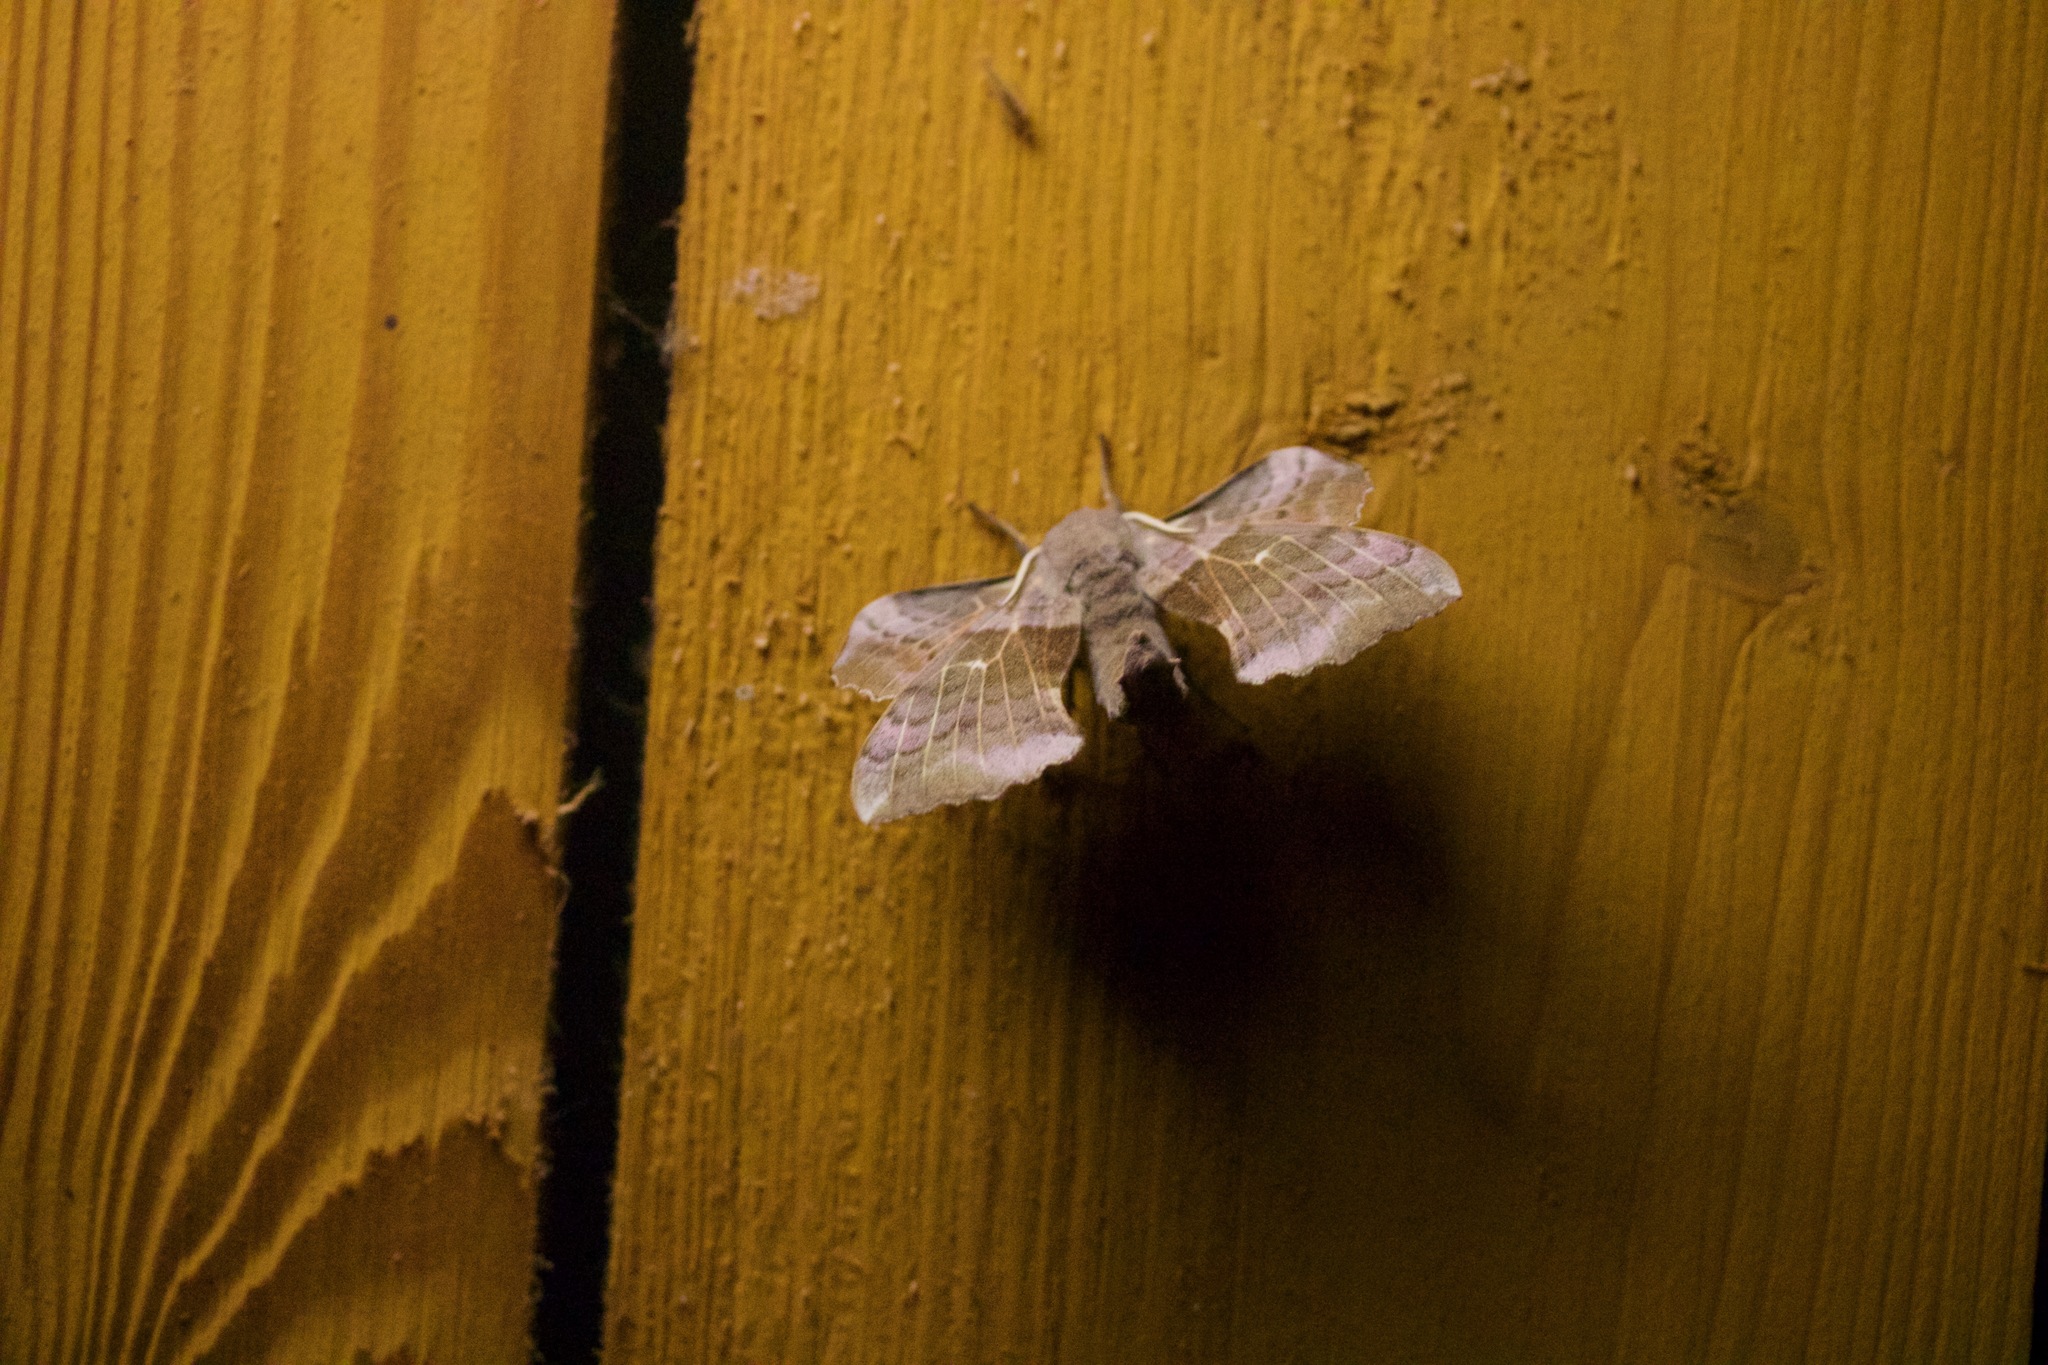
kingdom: Animalia
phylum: Arthropoda
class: Insecta
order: Lepidoptera
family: Sphingidae
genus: Laothoe
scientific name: Laothoe populi
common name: Poplar hawk-moth
